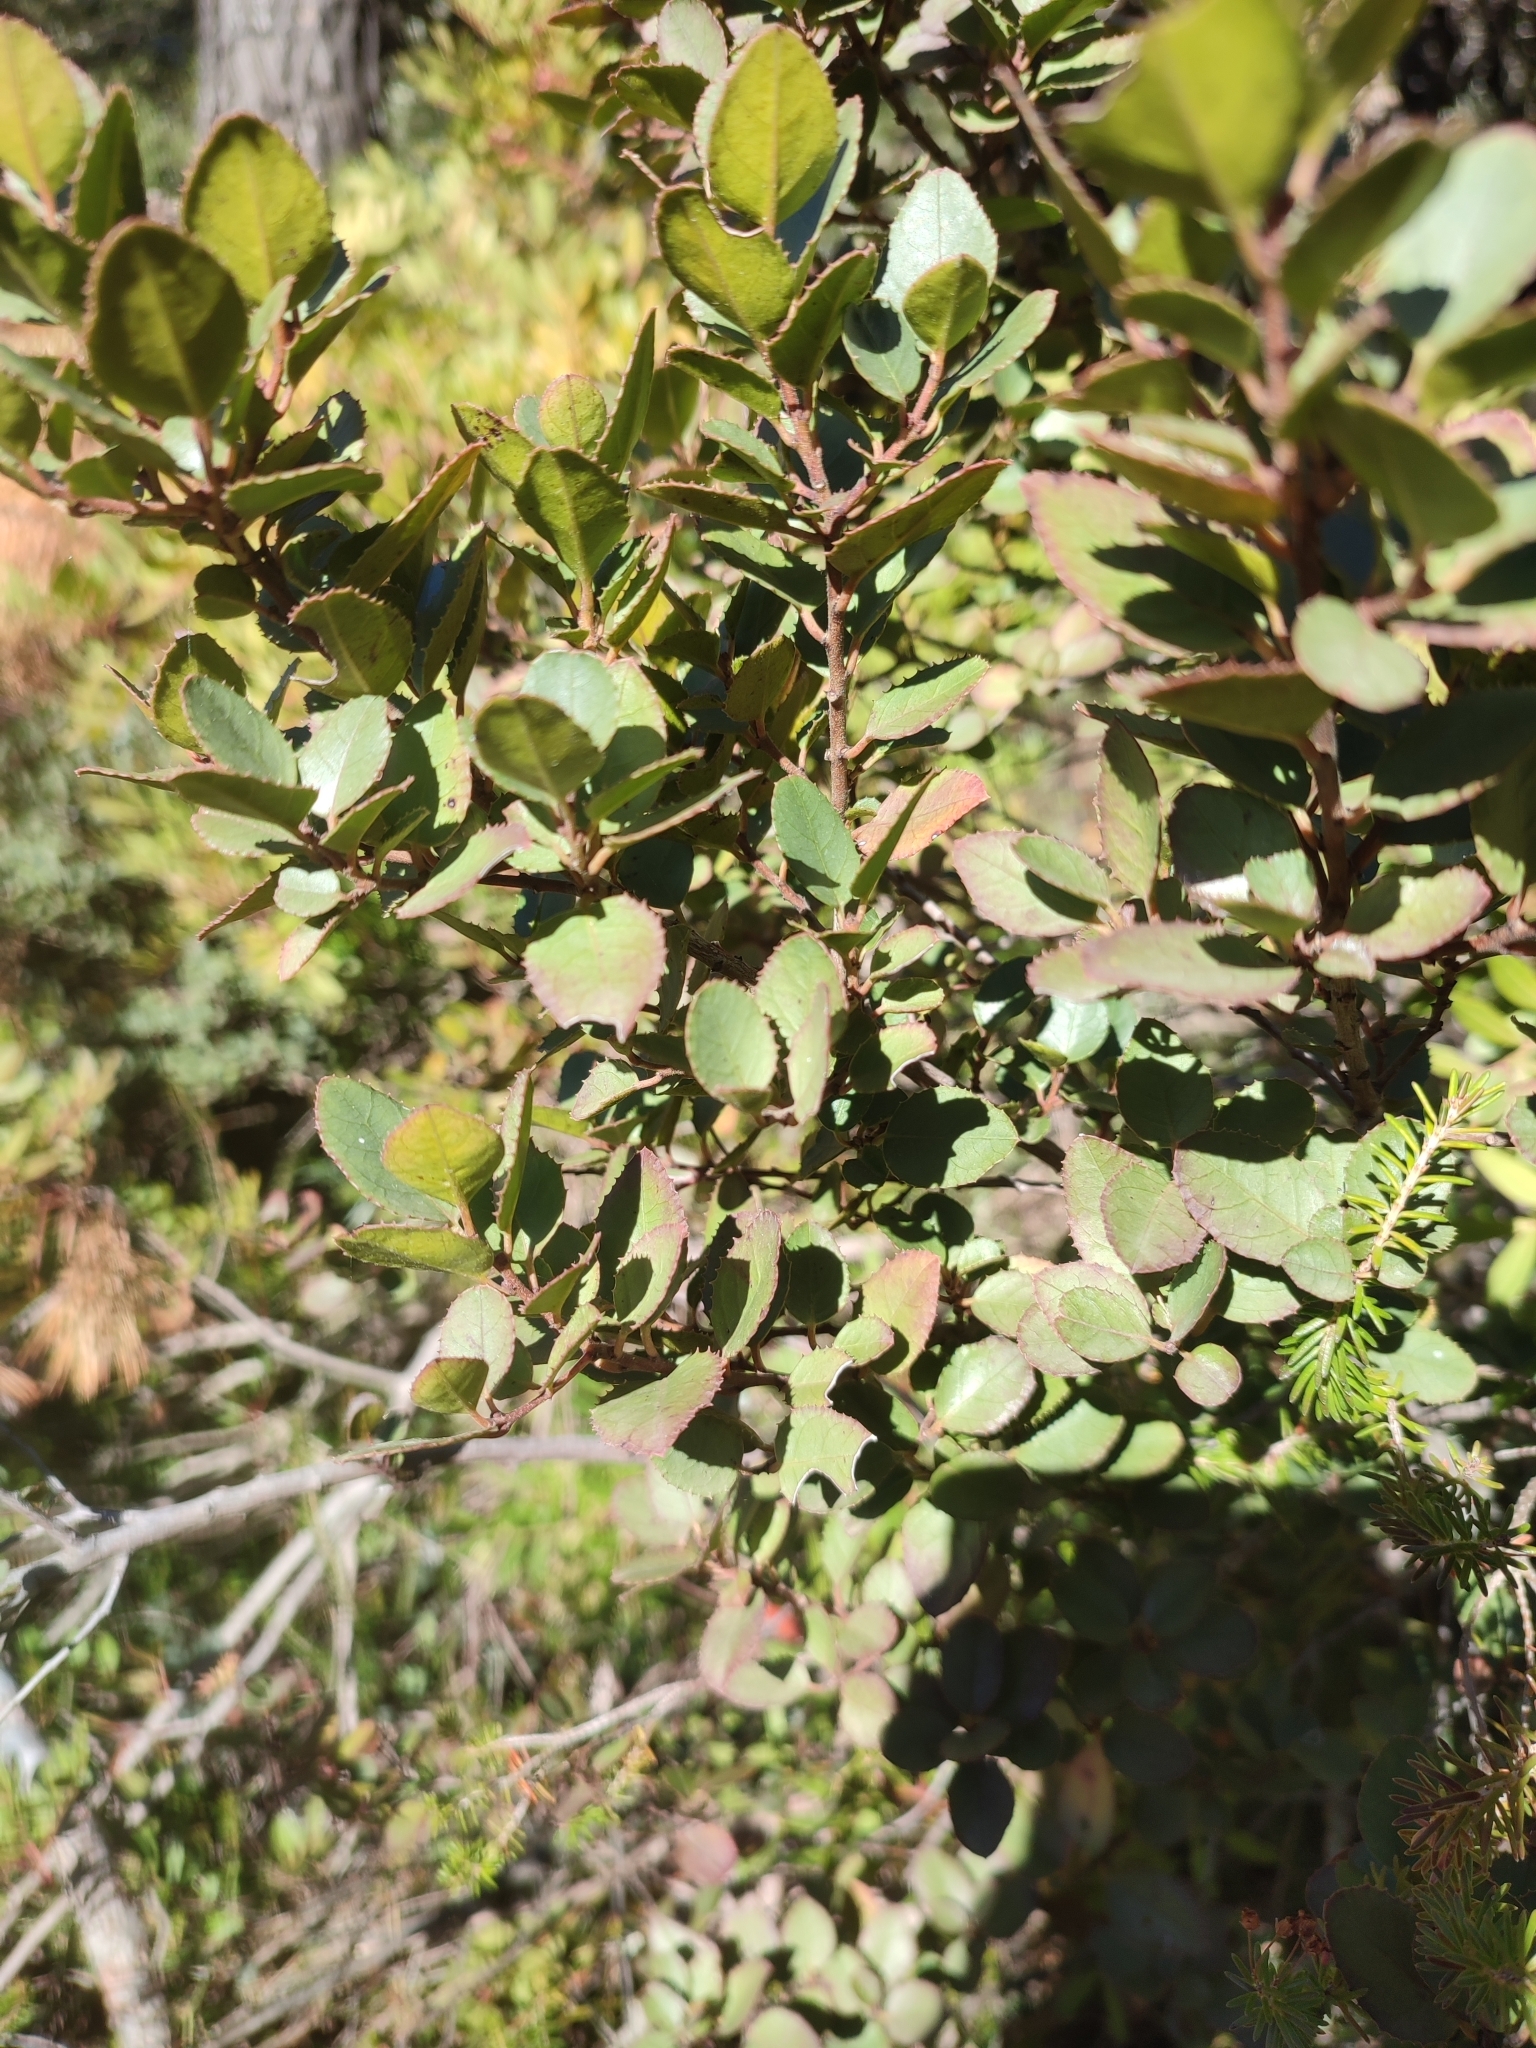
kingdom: Plantae
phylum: Tracheophyta
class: Magnoliopsida
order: Rosales
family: Rhamnaceae
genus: Rhamnus
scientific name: Rhamnus ludovici-salvatoris
